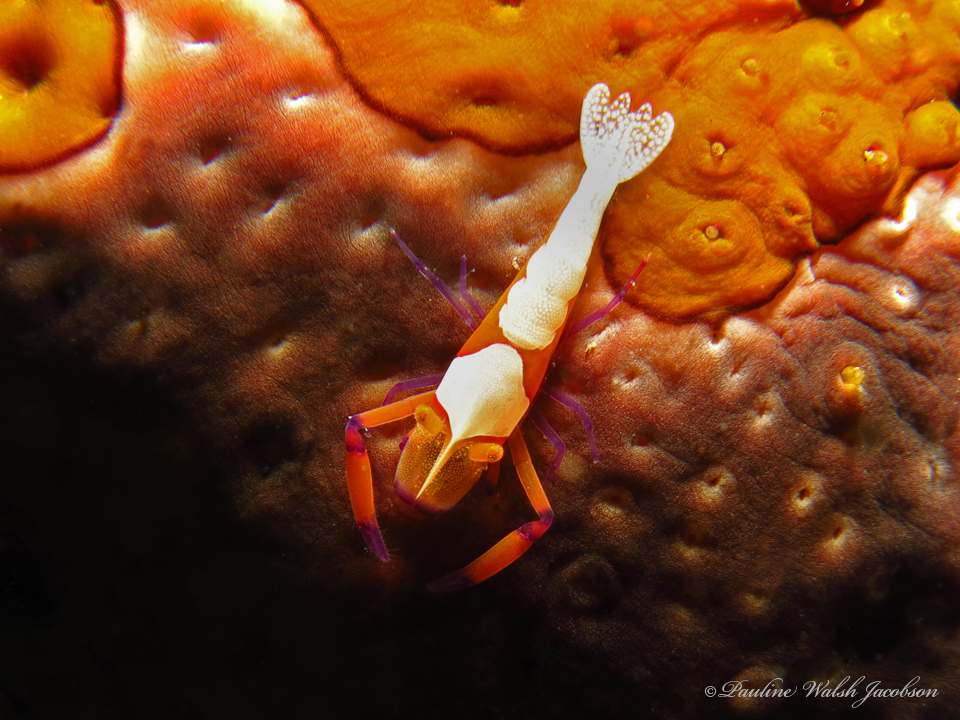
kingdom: Animalia
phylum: Arthropoda
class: Malacostraca
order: Decapoda
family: Palaemonidae
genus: Periclimenes
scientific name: Periclimenes rex
